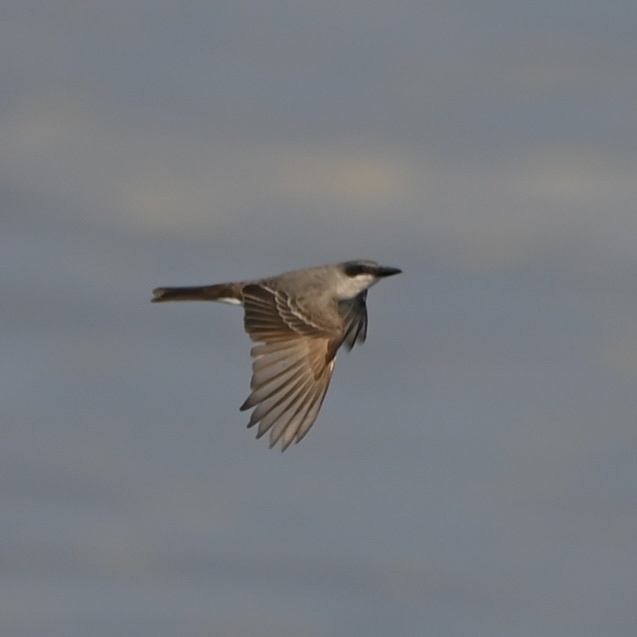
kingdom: Animalia
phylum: Chordata
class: Aves
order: Passeriformes
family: Tyrannidae
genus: Tyrannus
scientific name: Tyrannus dominicensis
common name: Gray kingbird
